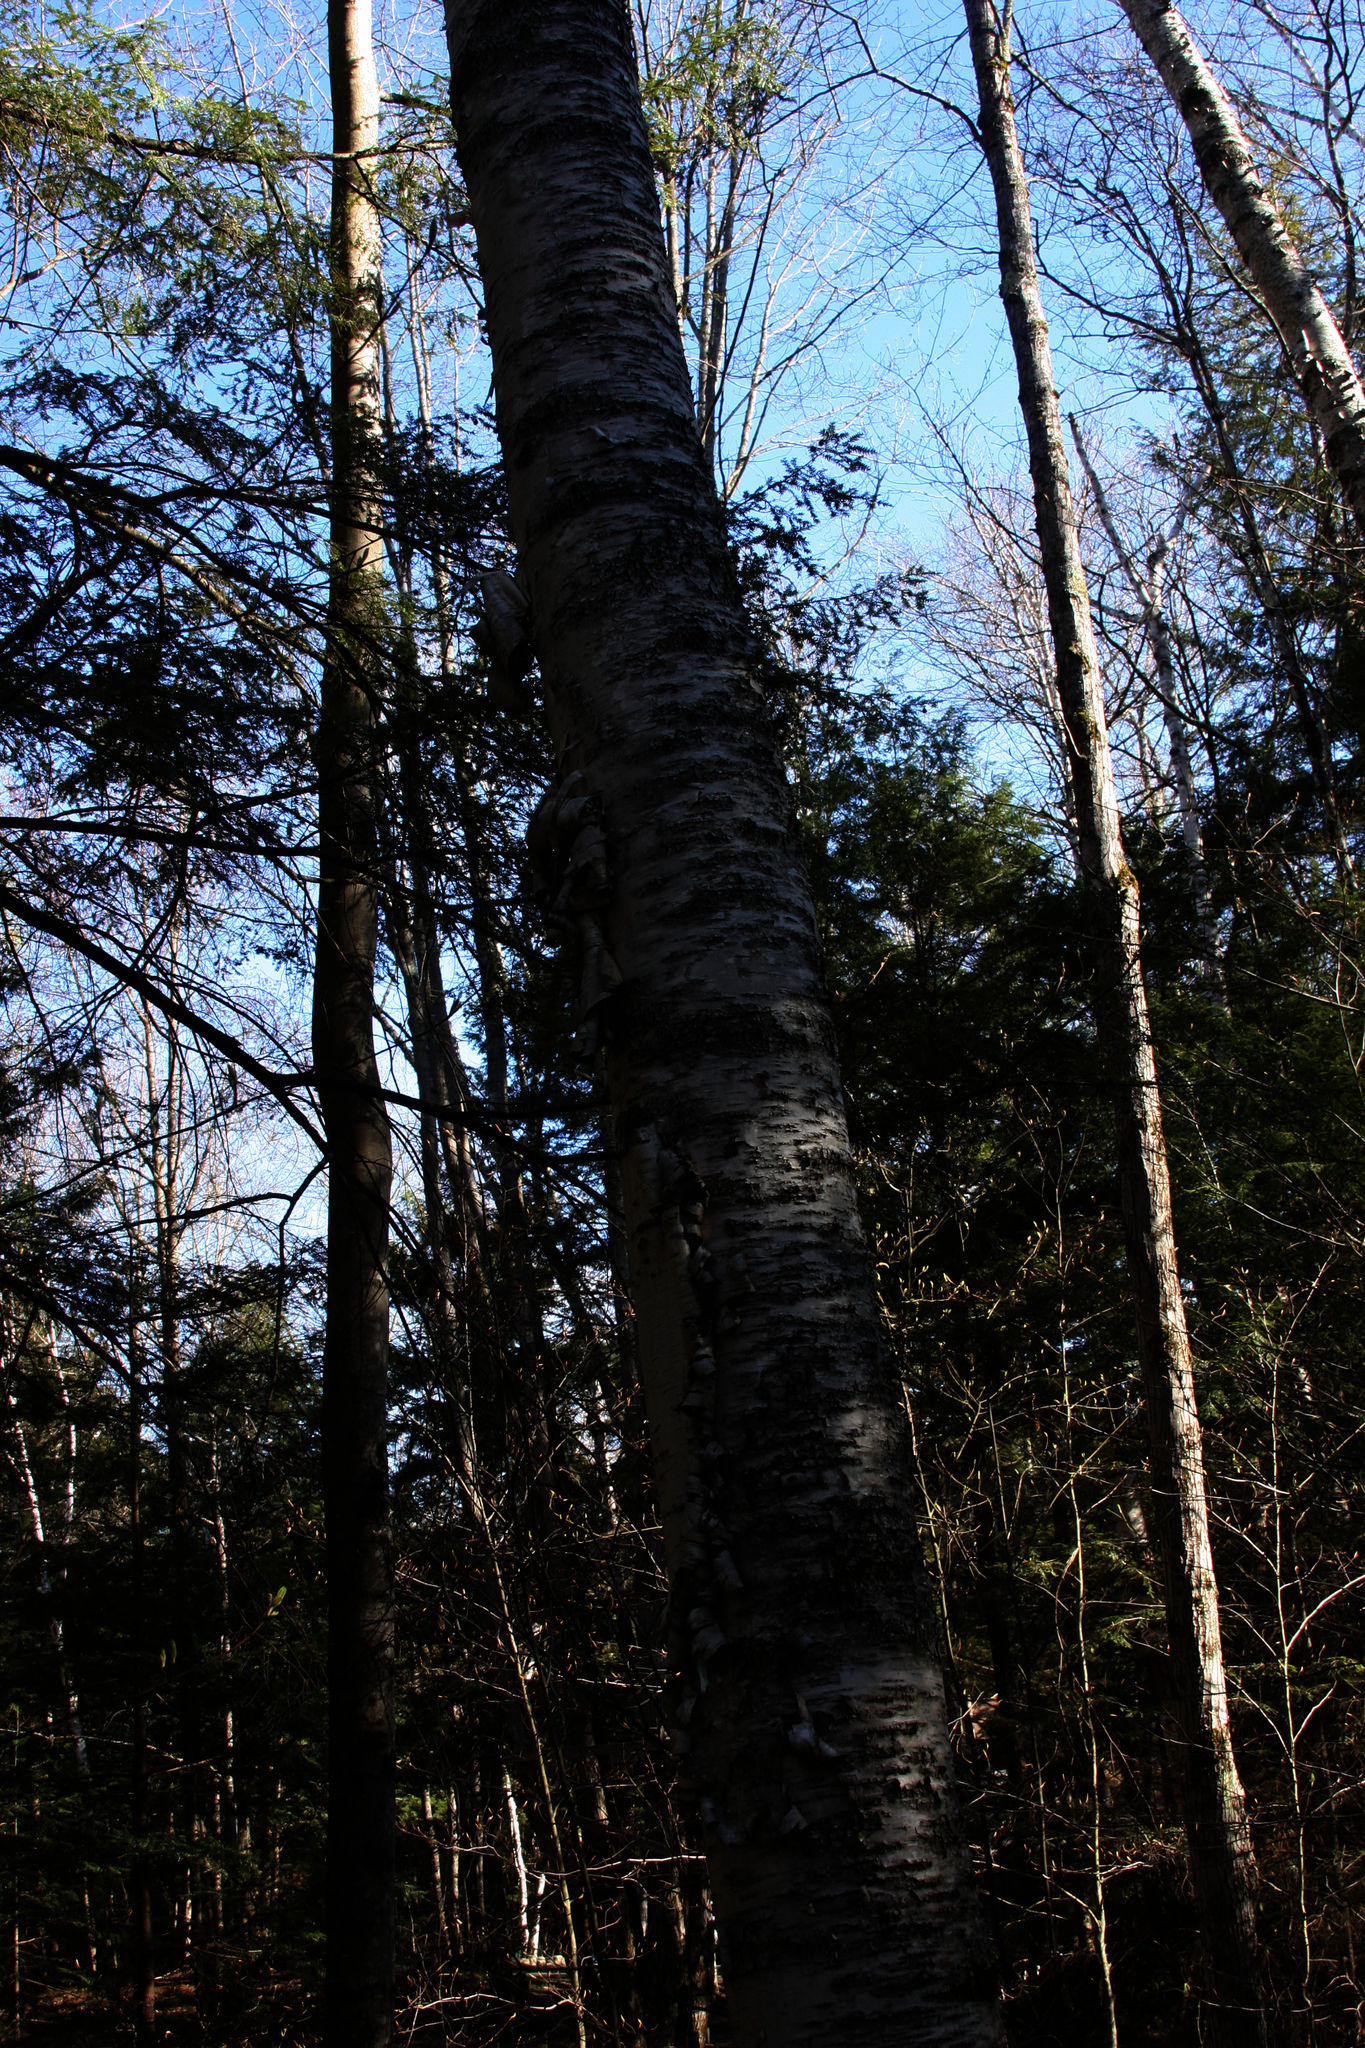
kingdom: Plantae
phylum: Tracheophyta
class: Magnoliopsida
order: Fagales
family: Betulaceae
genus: Betula
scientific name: Betula papyrifera
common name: Paper birch
